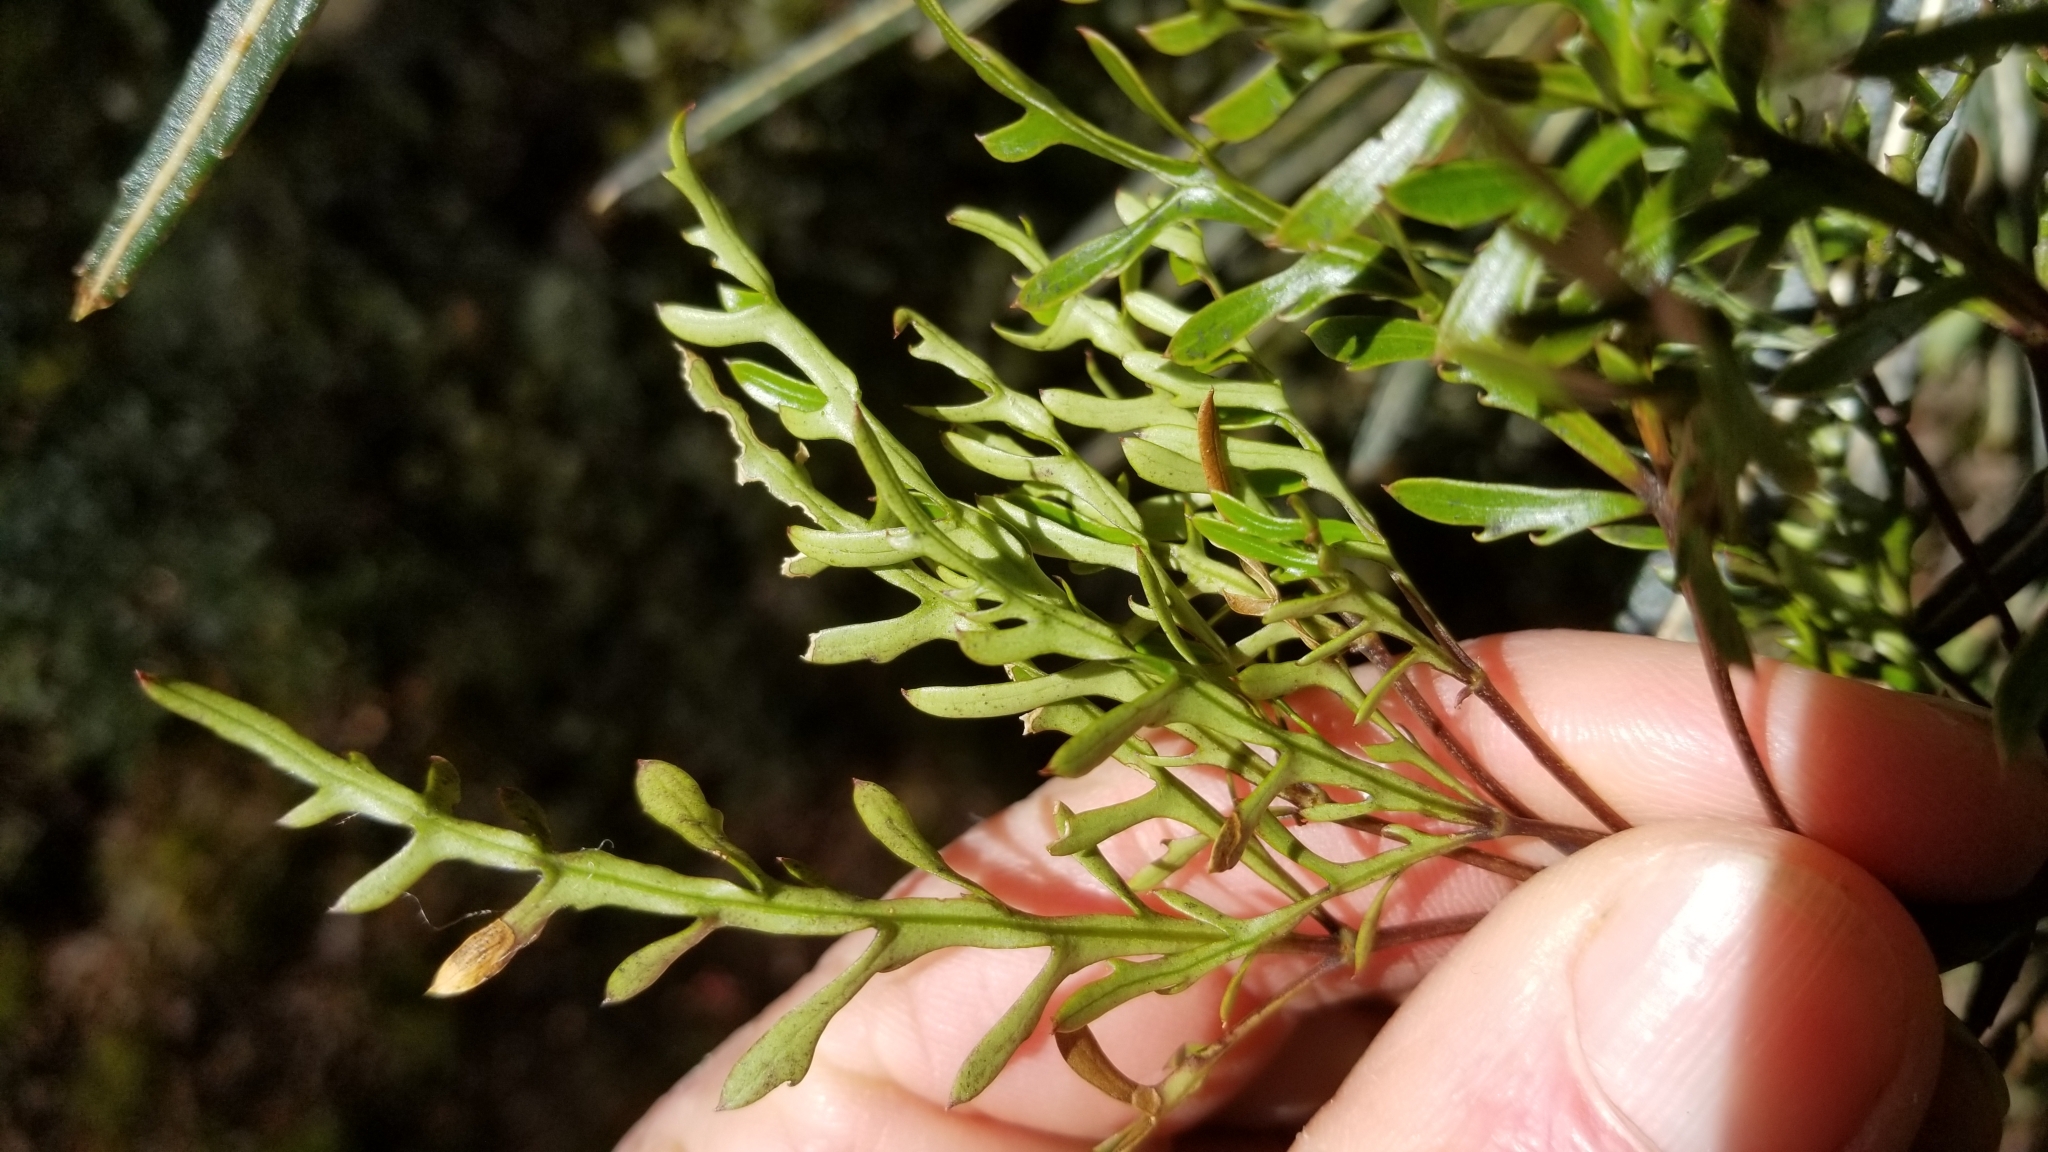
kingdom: Plantae
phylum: Tracheophyta
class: Magnoliopsida
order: Apiales
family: Araliaceae
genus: Raukaua
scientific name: Raukaua simplex
